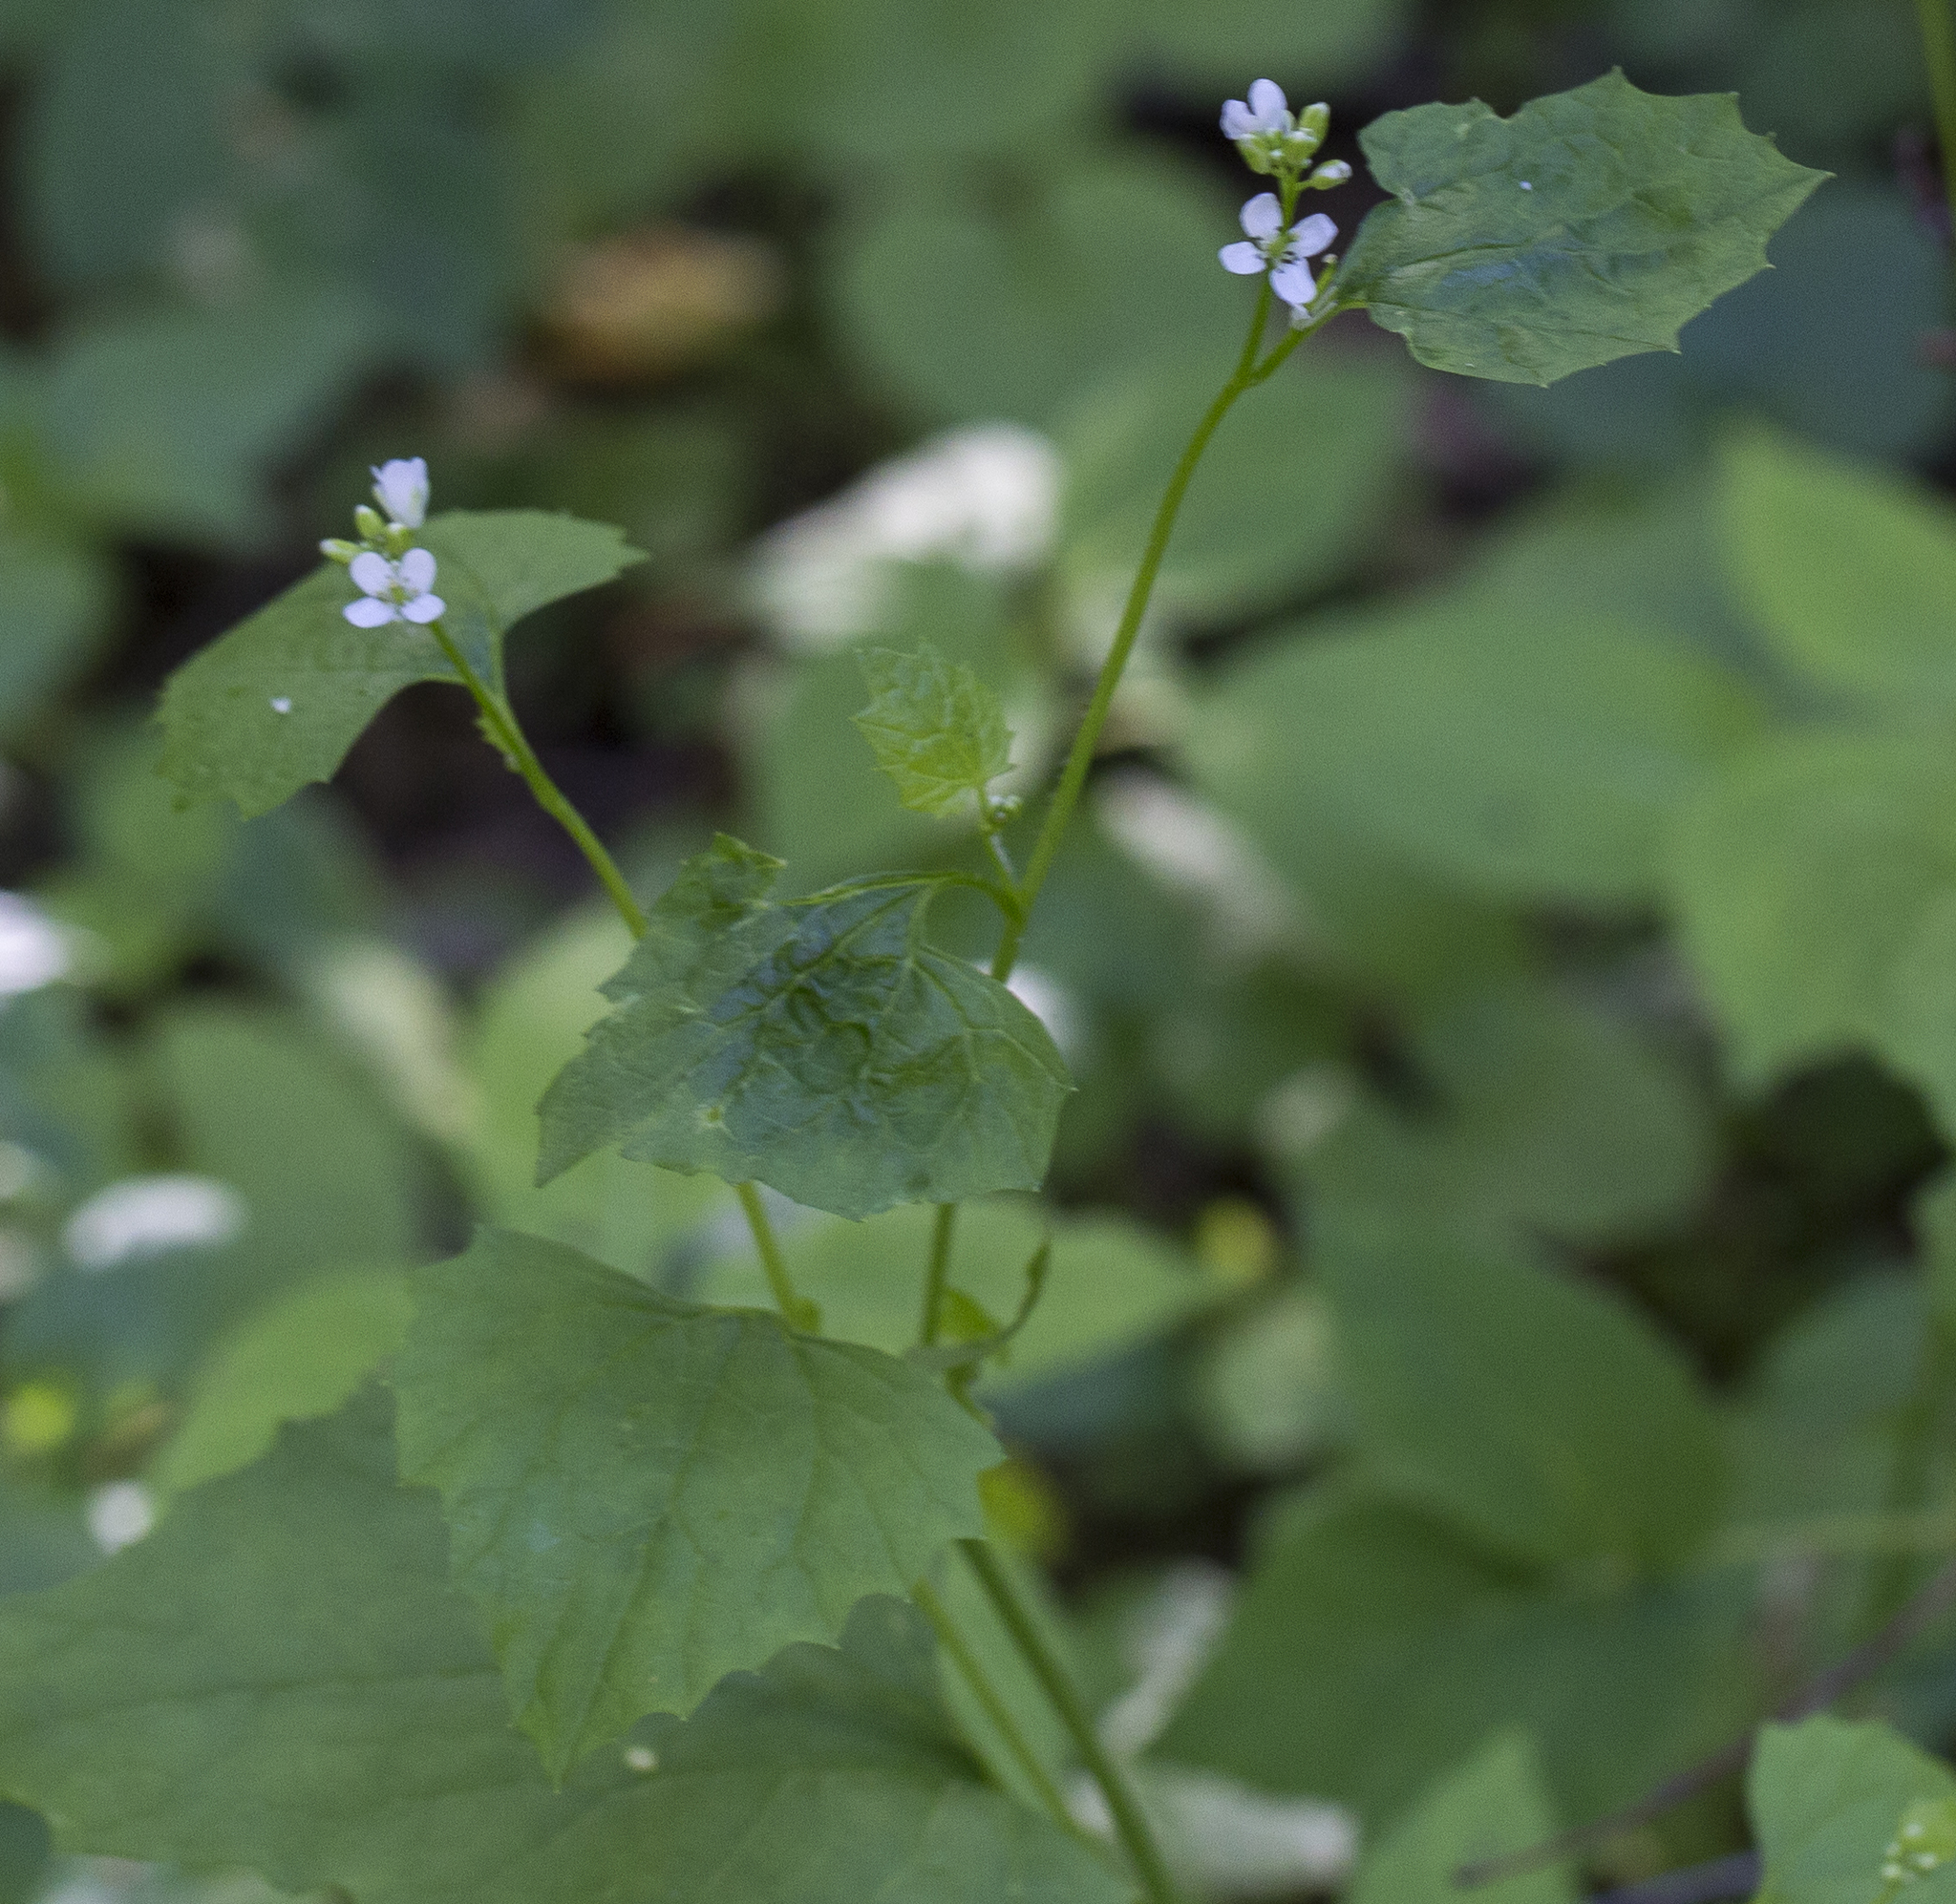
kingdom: Plantae
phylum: Tracheophyta
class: Magnoliopsida
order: Brassicales
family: Brassicaceae
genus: Alliaria
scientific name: Alliaria petiolata
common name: Garlic mustard
